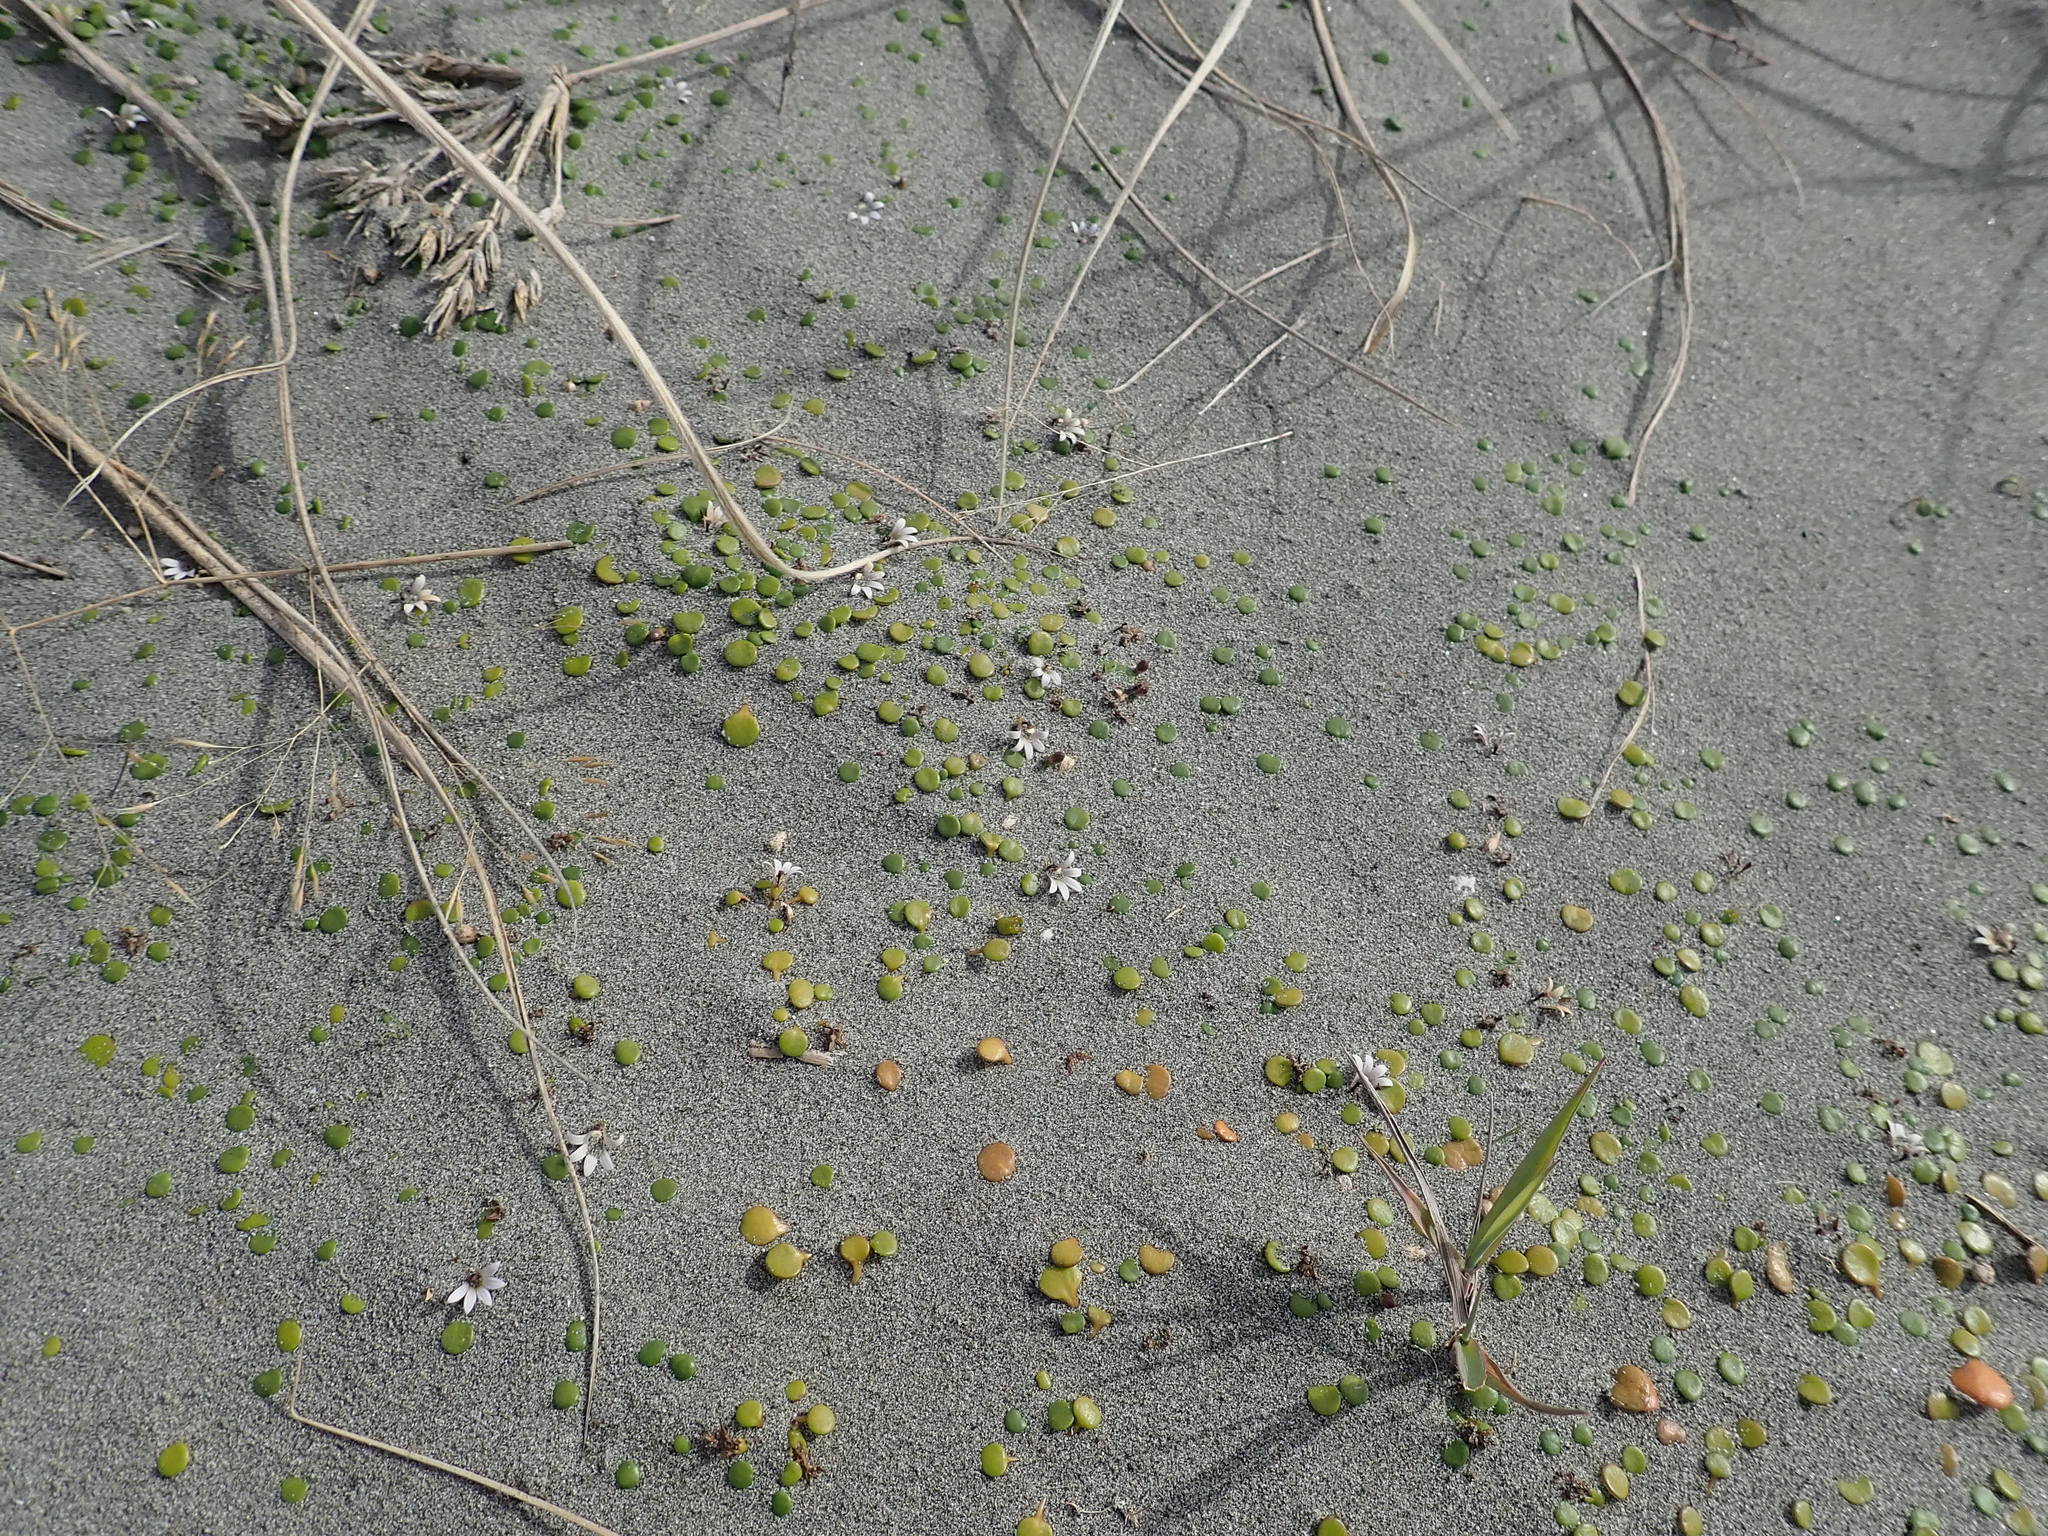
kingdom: Plantae
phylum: Tracheophyta
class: Magnoliopsida
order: Asterales
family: Goodeniaceae
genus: Goodenia
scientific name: Goodenia heenanii
